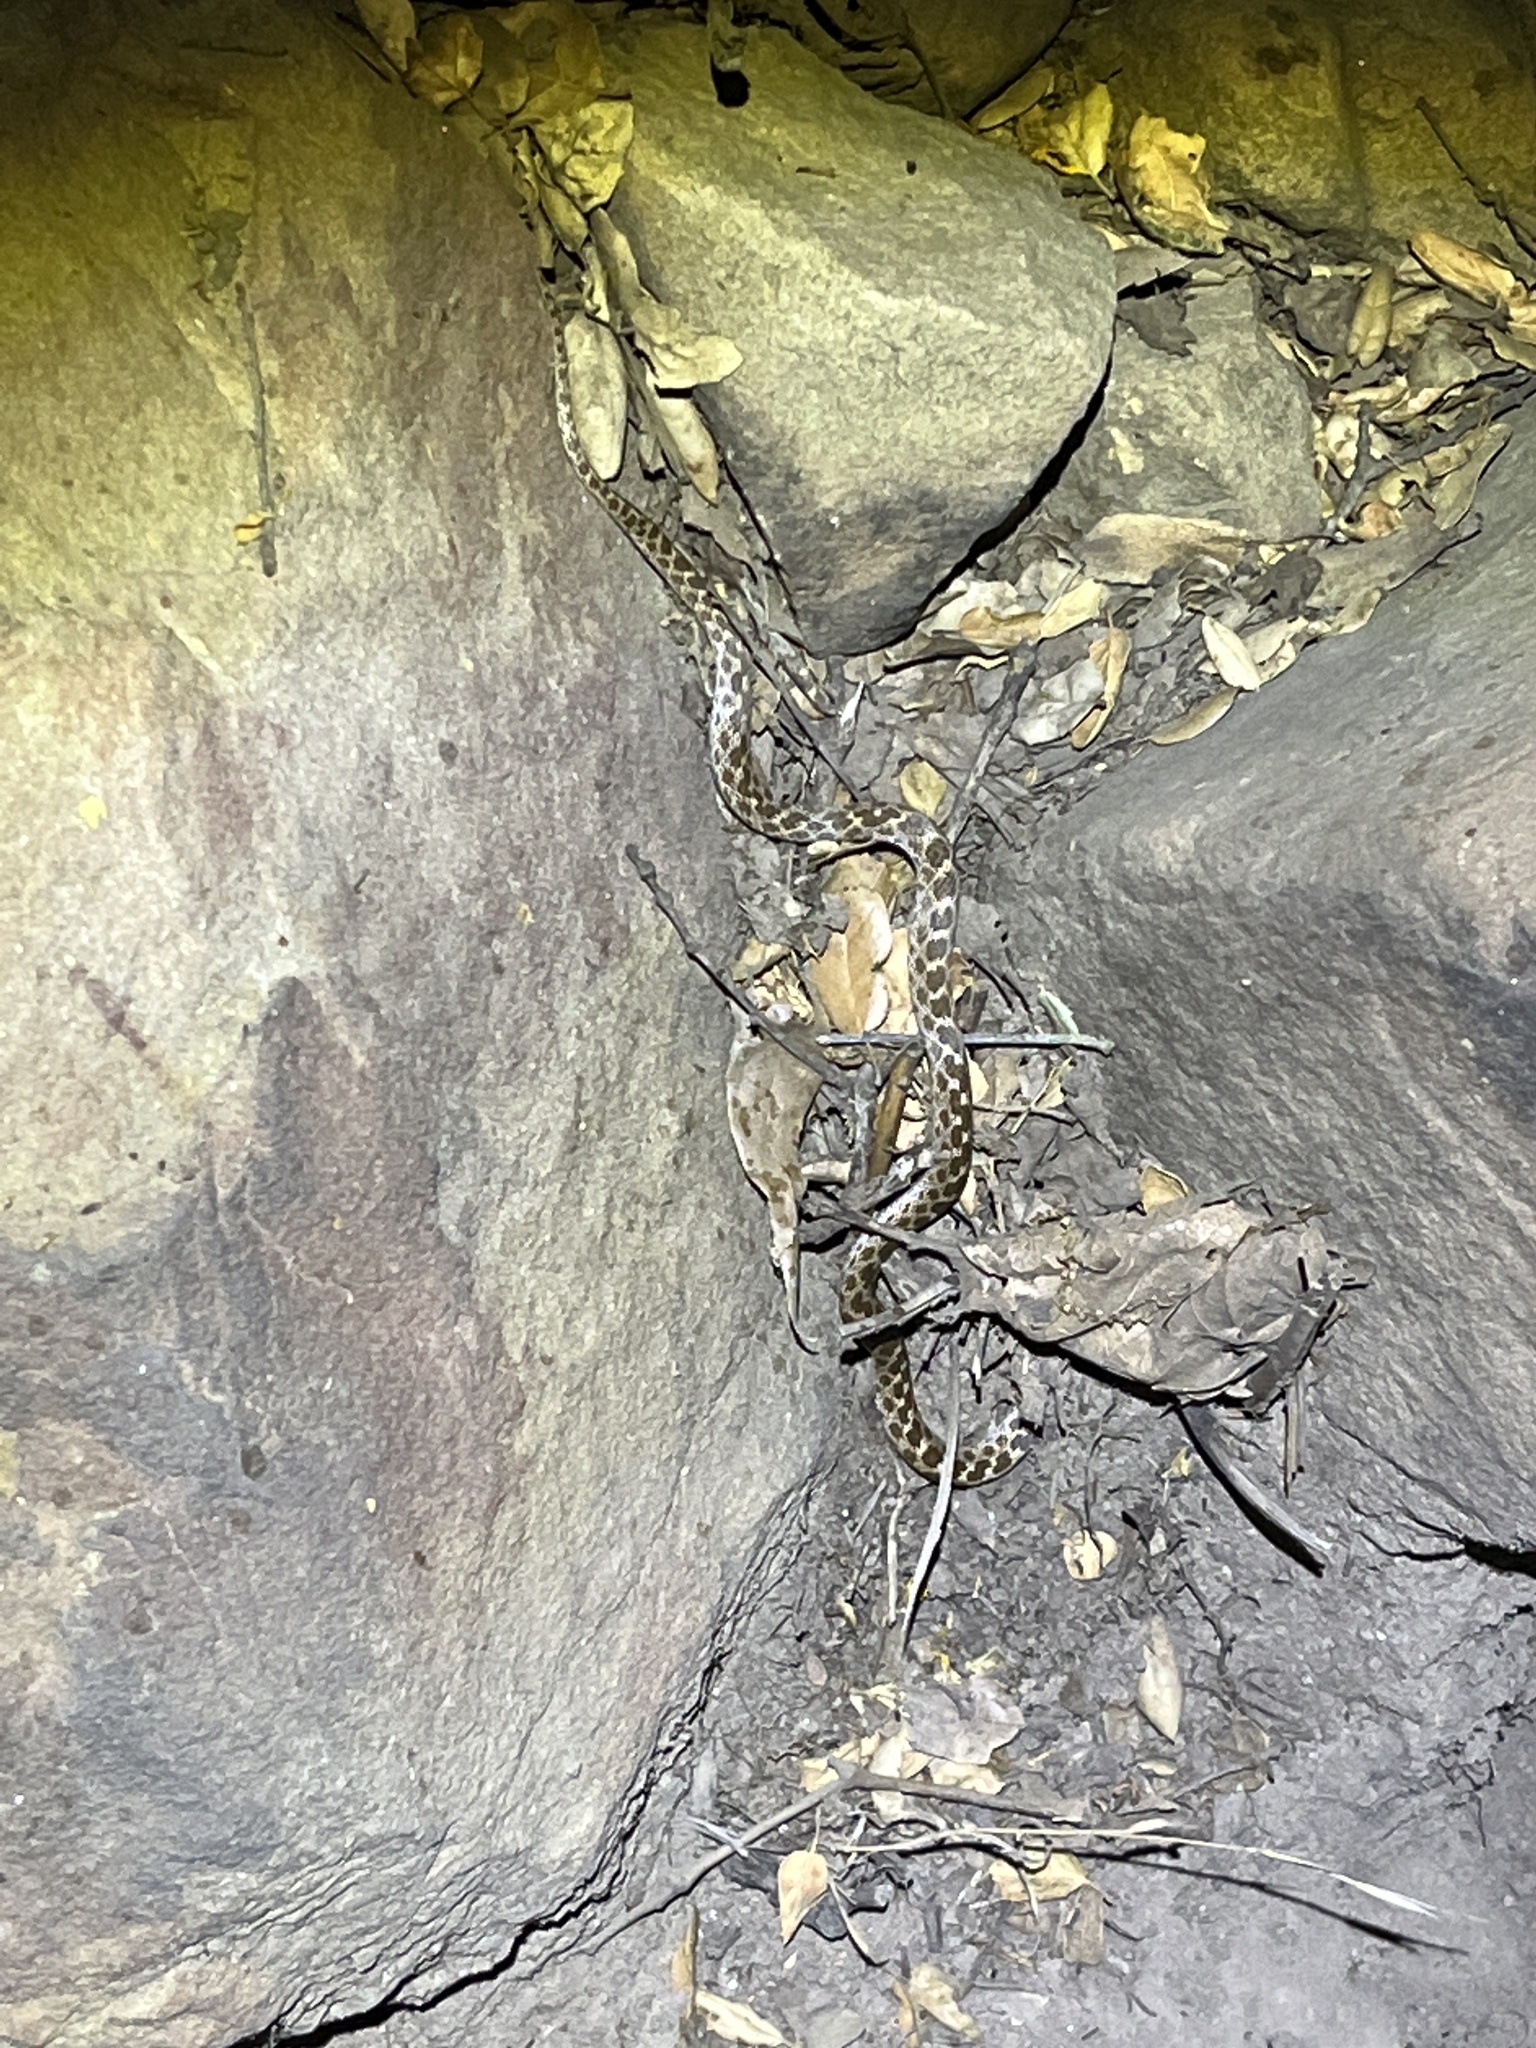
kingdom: Animalia
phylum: Chordata
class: Squamata
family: Colubridae
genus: Hypsiglena
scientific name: Hypsiglena ochrorhynchus
